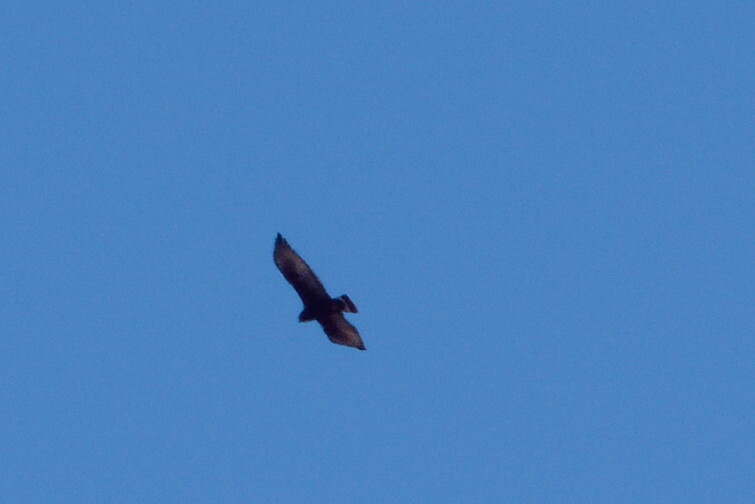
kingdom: Animalia
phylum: Chordata
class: Aves
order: Accipitriformes
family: Accipitridae
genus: Buteo
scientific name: Buteo albonotatus
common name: Zone-tailed hawk
